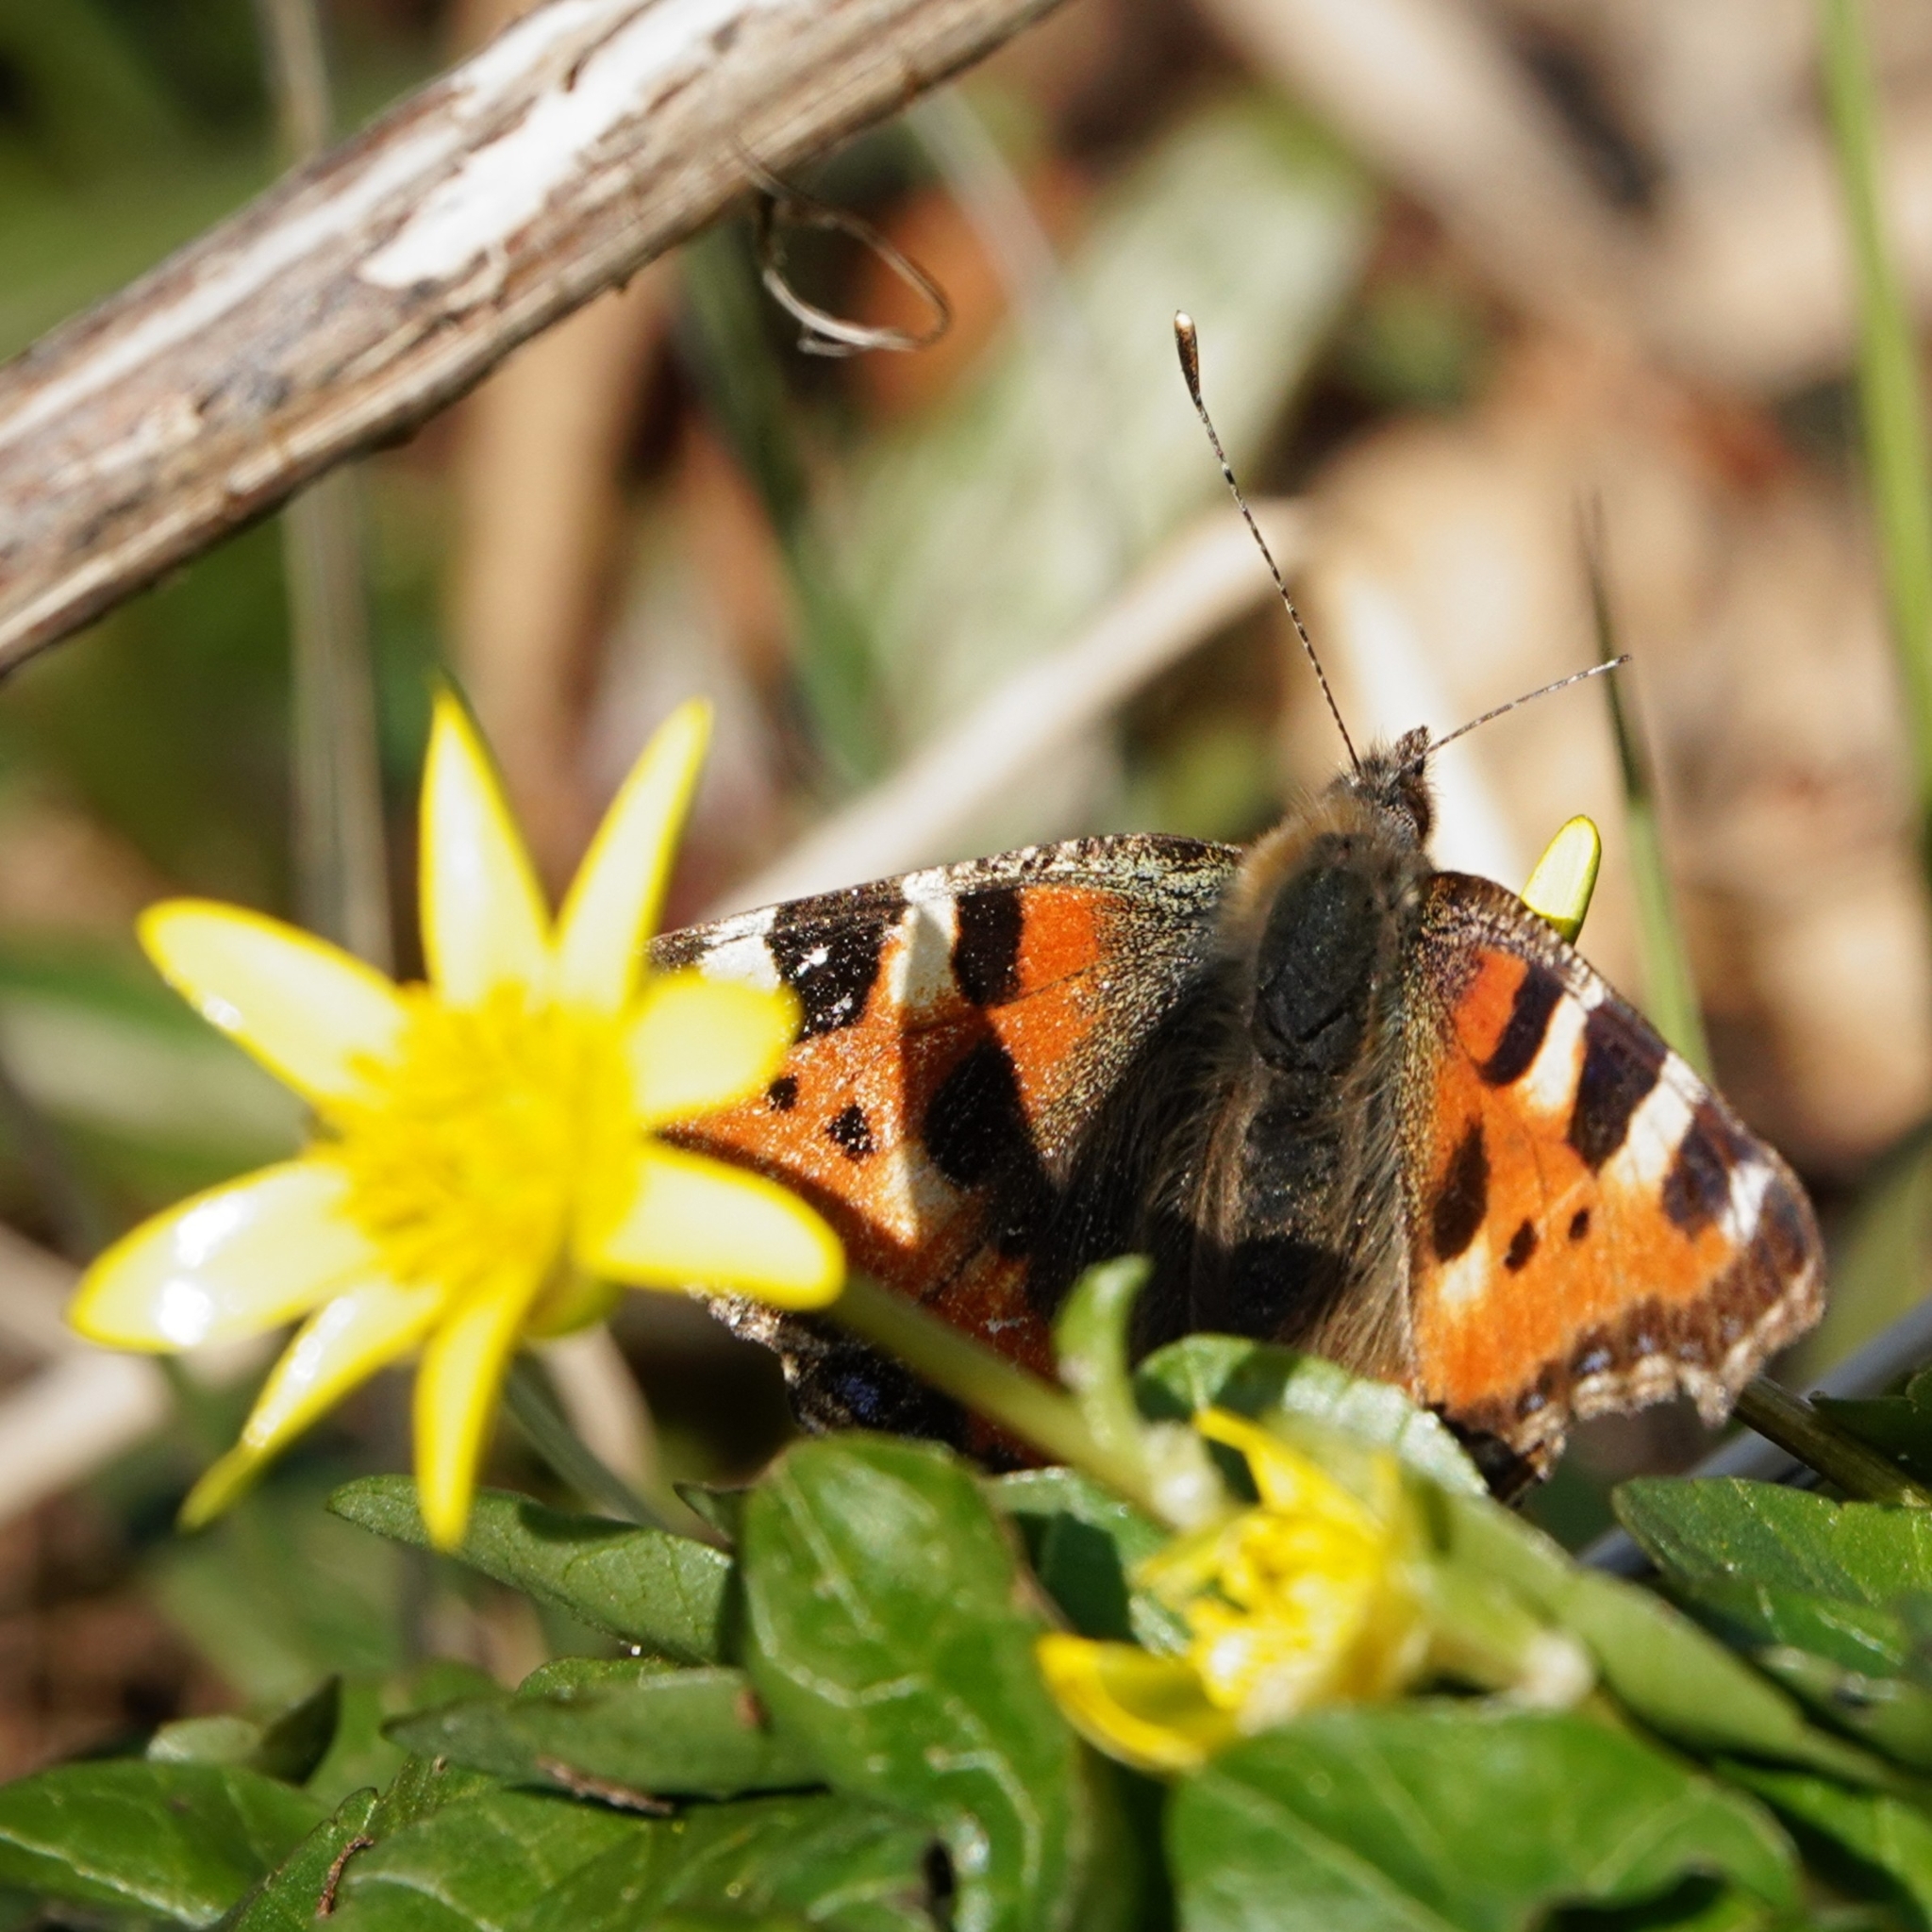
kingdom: Animalia
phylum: Arthropoda
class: Insecta
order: Lepidoptera
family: Nymphalidae
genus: Aglais
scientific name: Aglais urticae
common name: Small tortoiseshell
